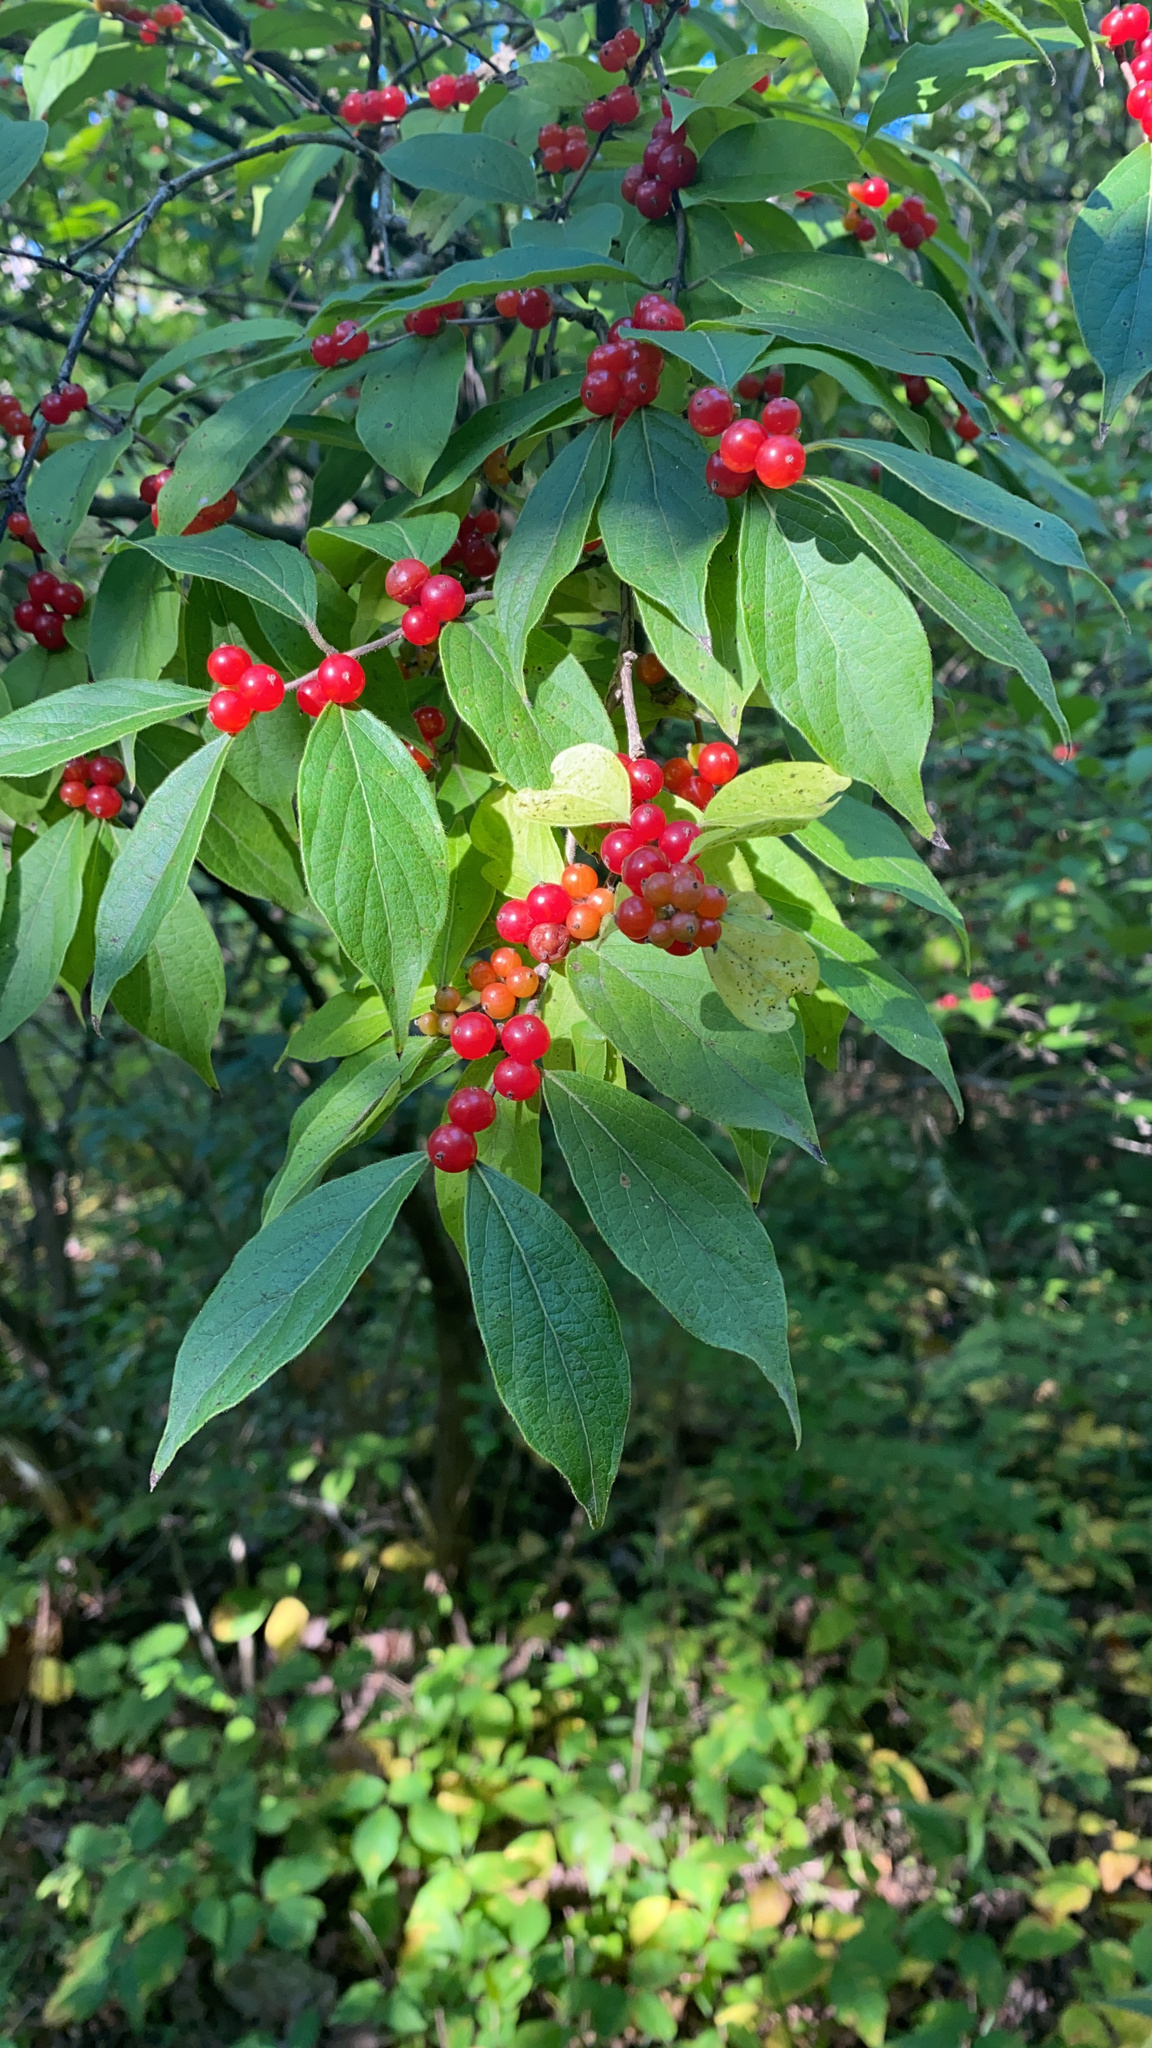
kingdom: Plantae
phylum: Tracheophyta
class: Magnoliopsida
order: Dipsacales
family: Caprifoliaceae
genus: Lonicera
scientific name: Lonicera maackii
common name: Amur honeysuckle
